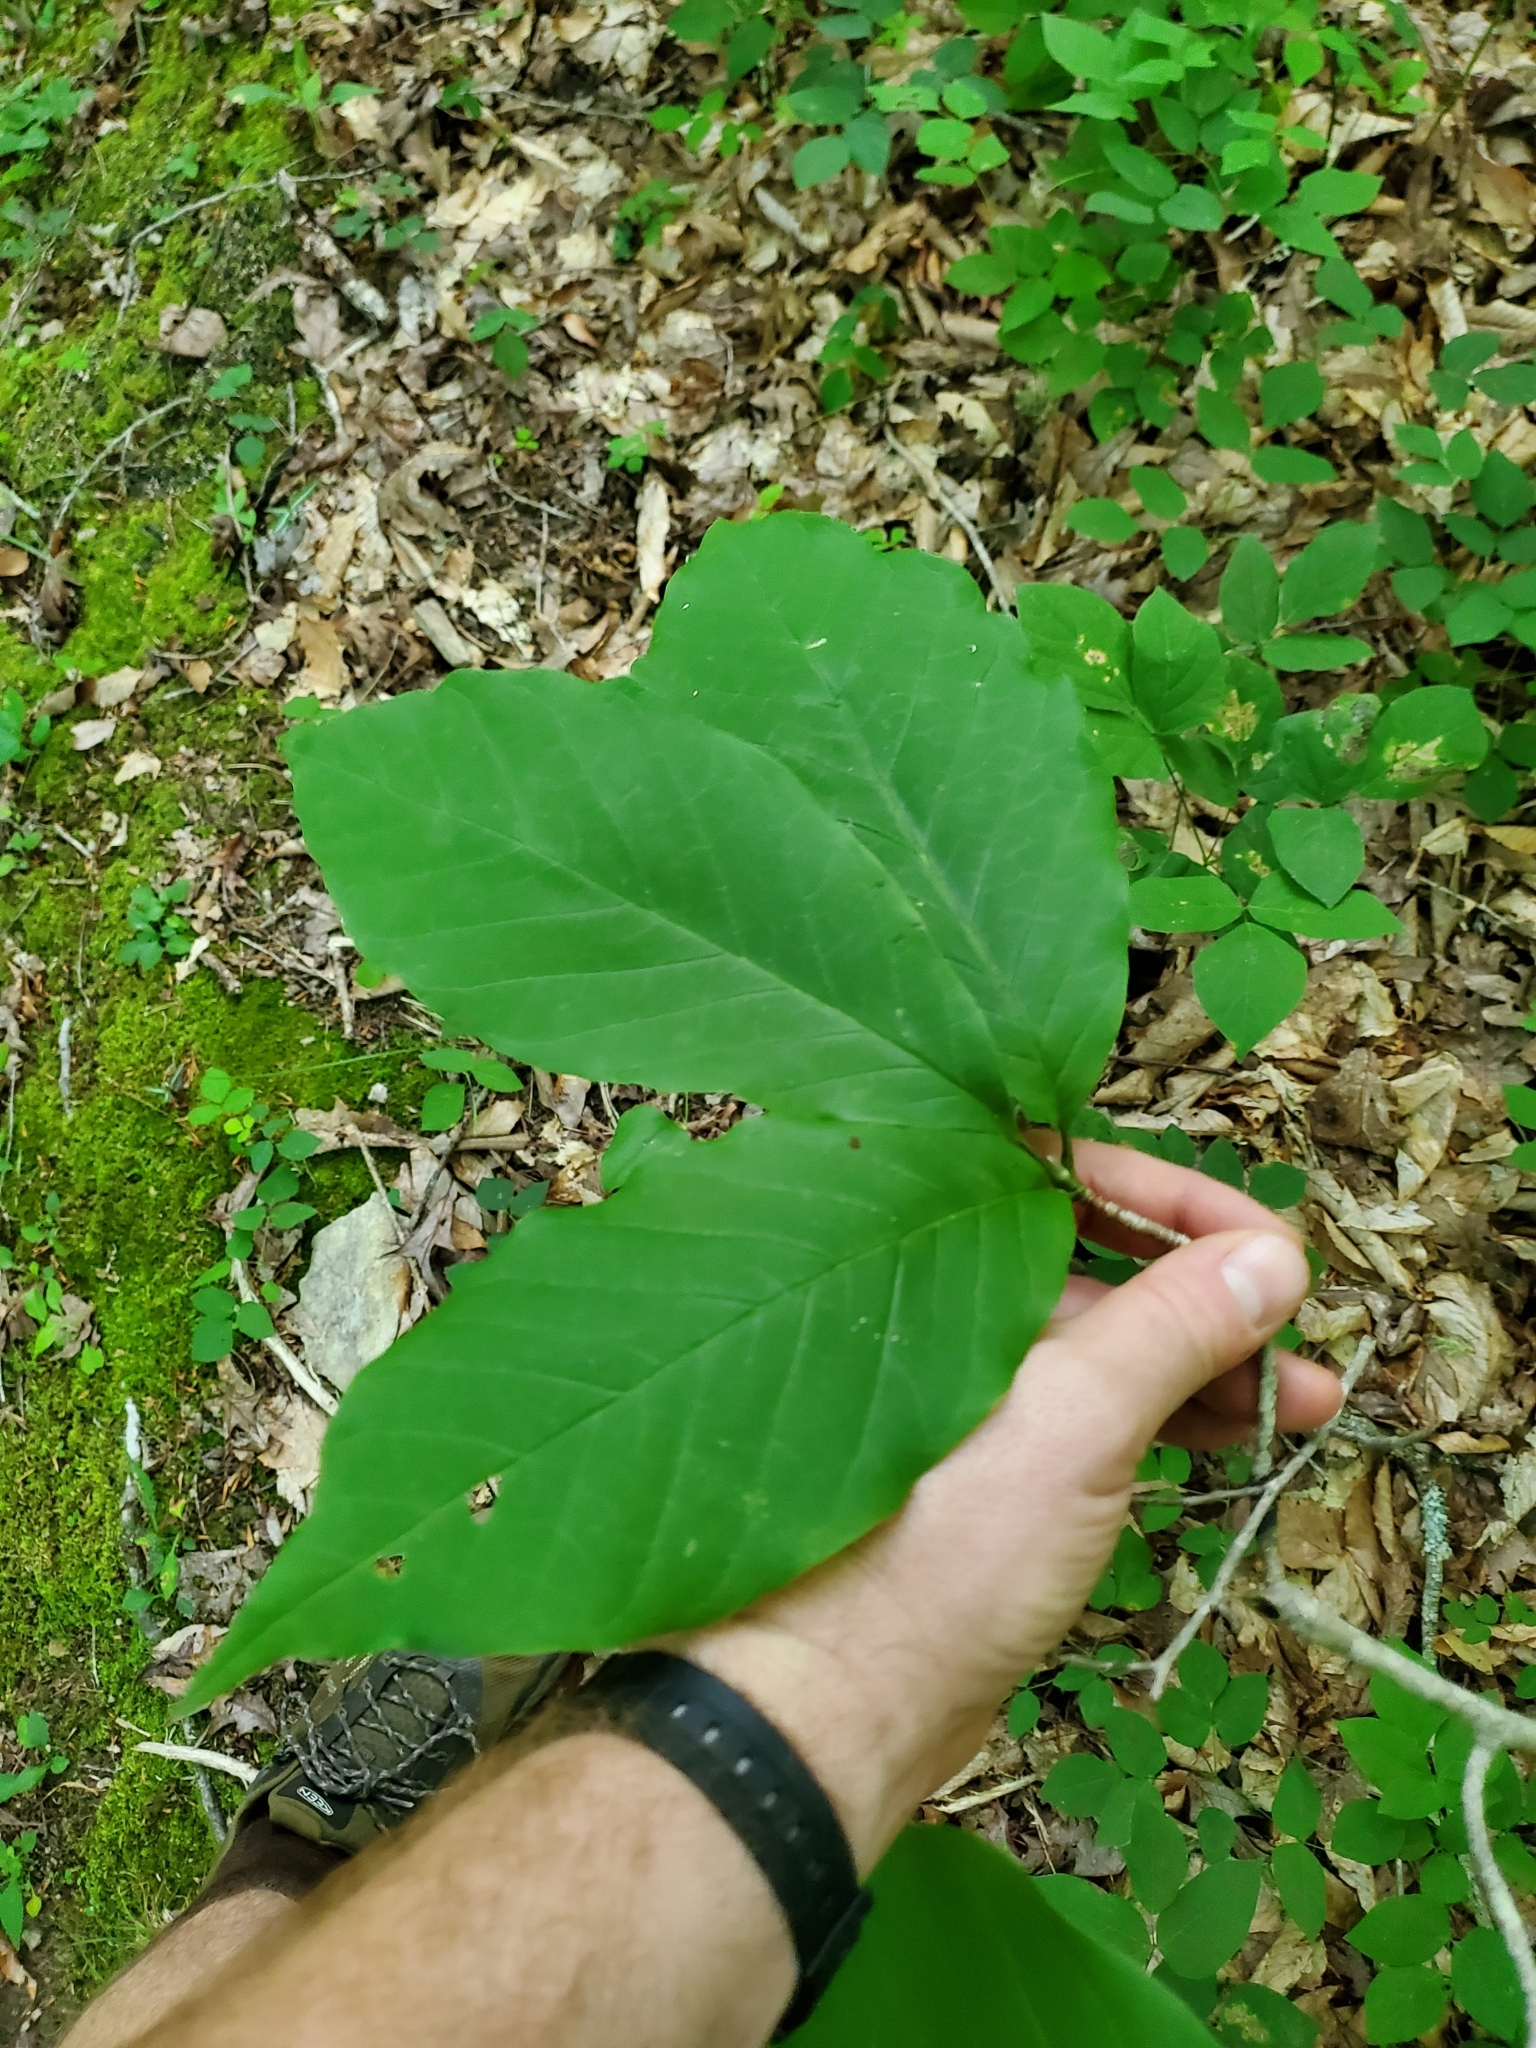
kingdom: Plantae
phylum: Tracheophyta
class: Magnoliopsida
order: Magnoliales
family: Magnoliaceae
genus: Magnolia
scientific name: Magnolia acuminata
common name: Cucumber magnolia
